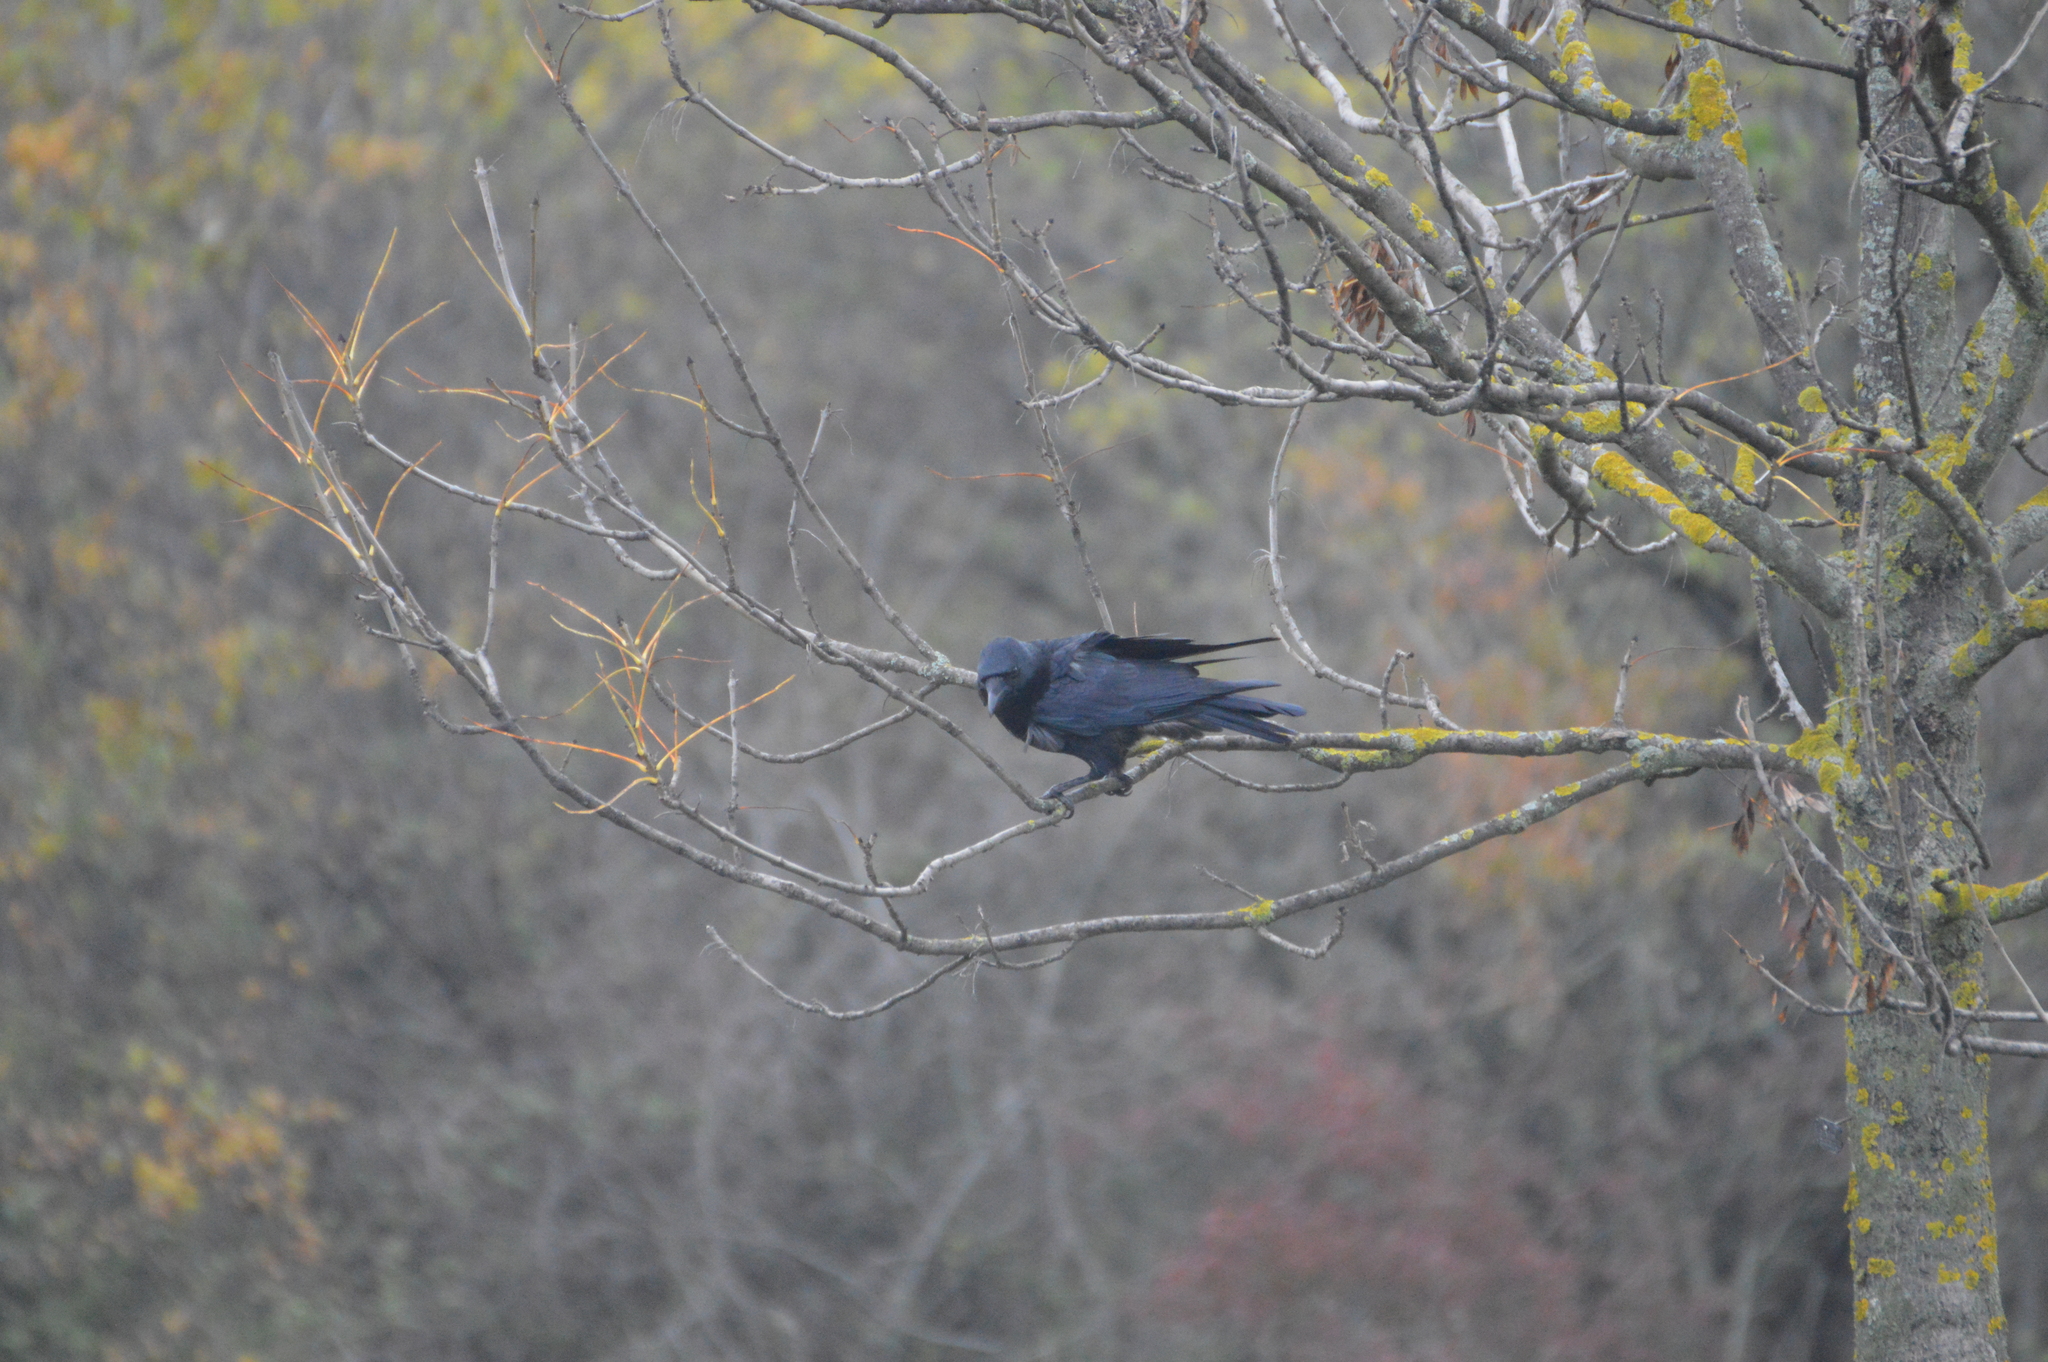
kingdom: Animalia
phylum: Chordata
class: Aves
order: Passeriformes
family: Corvidae
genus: Corvus
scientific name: Corvus
